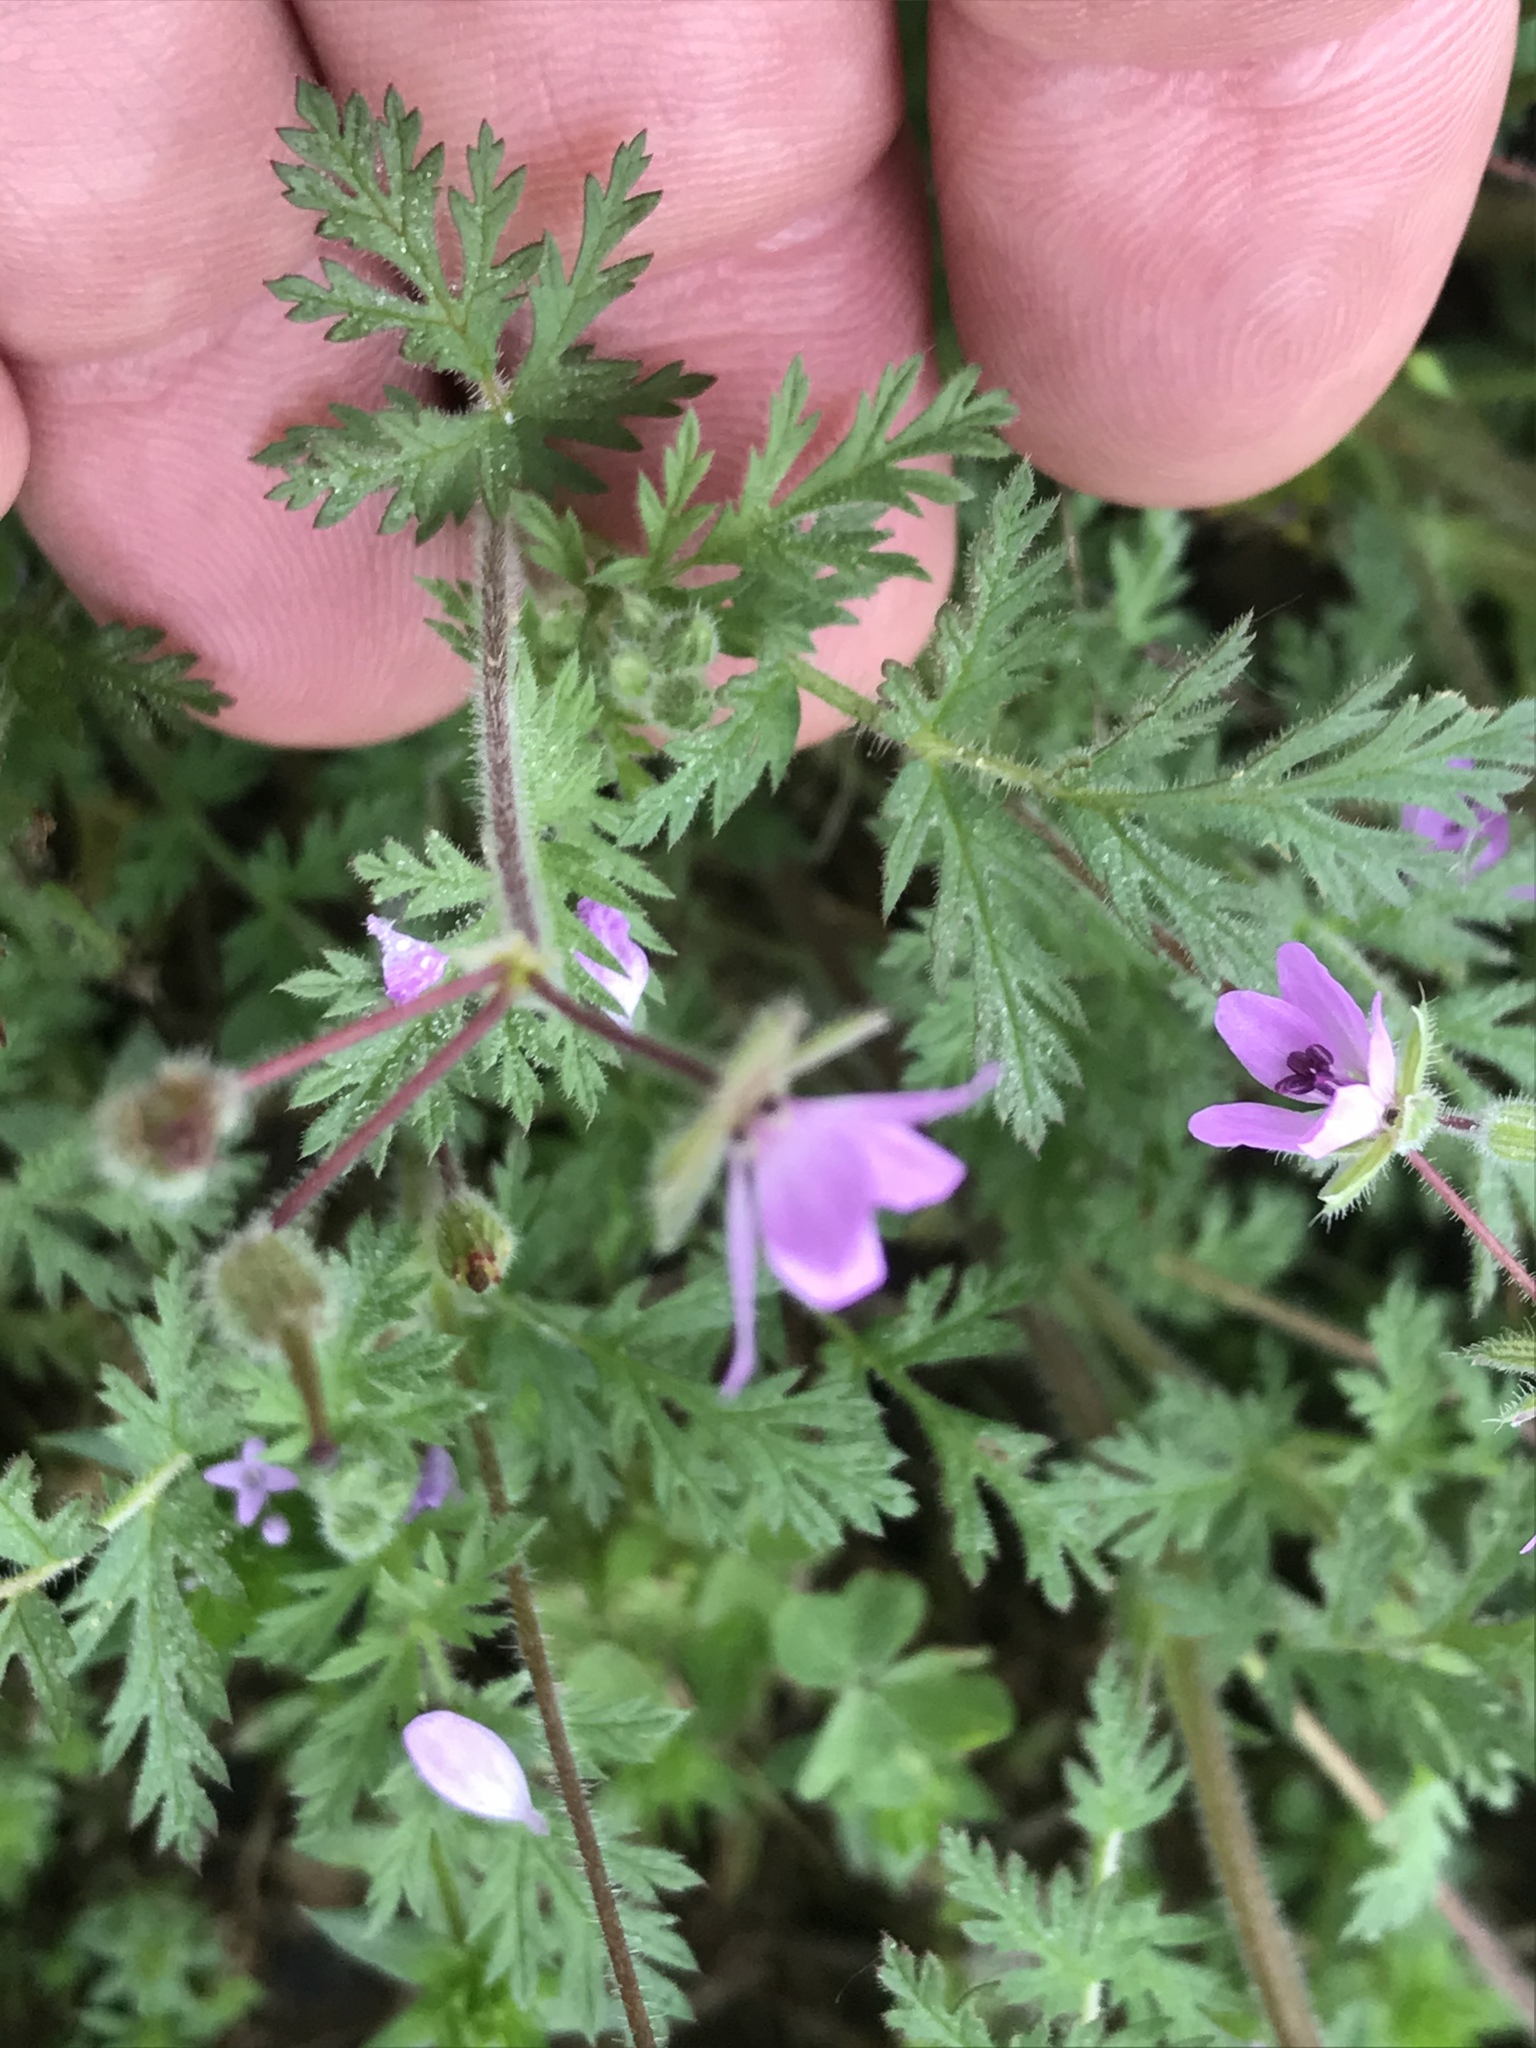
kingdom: Plantae
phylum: Tracheophyta
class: Magnoliopsida
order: Geraniales
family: Geraniaceae
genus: Erodium
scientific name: Erodium cicutarium
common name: Common stork's-bill
